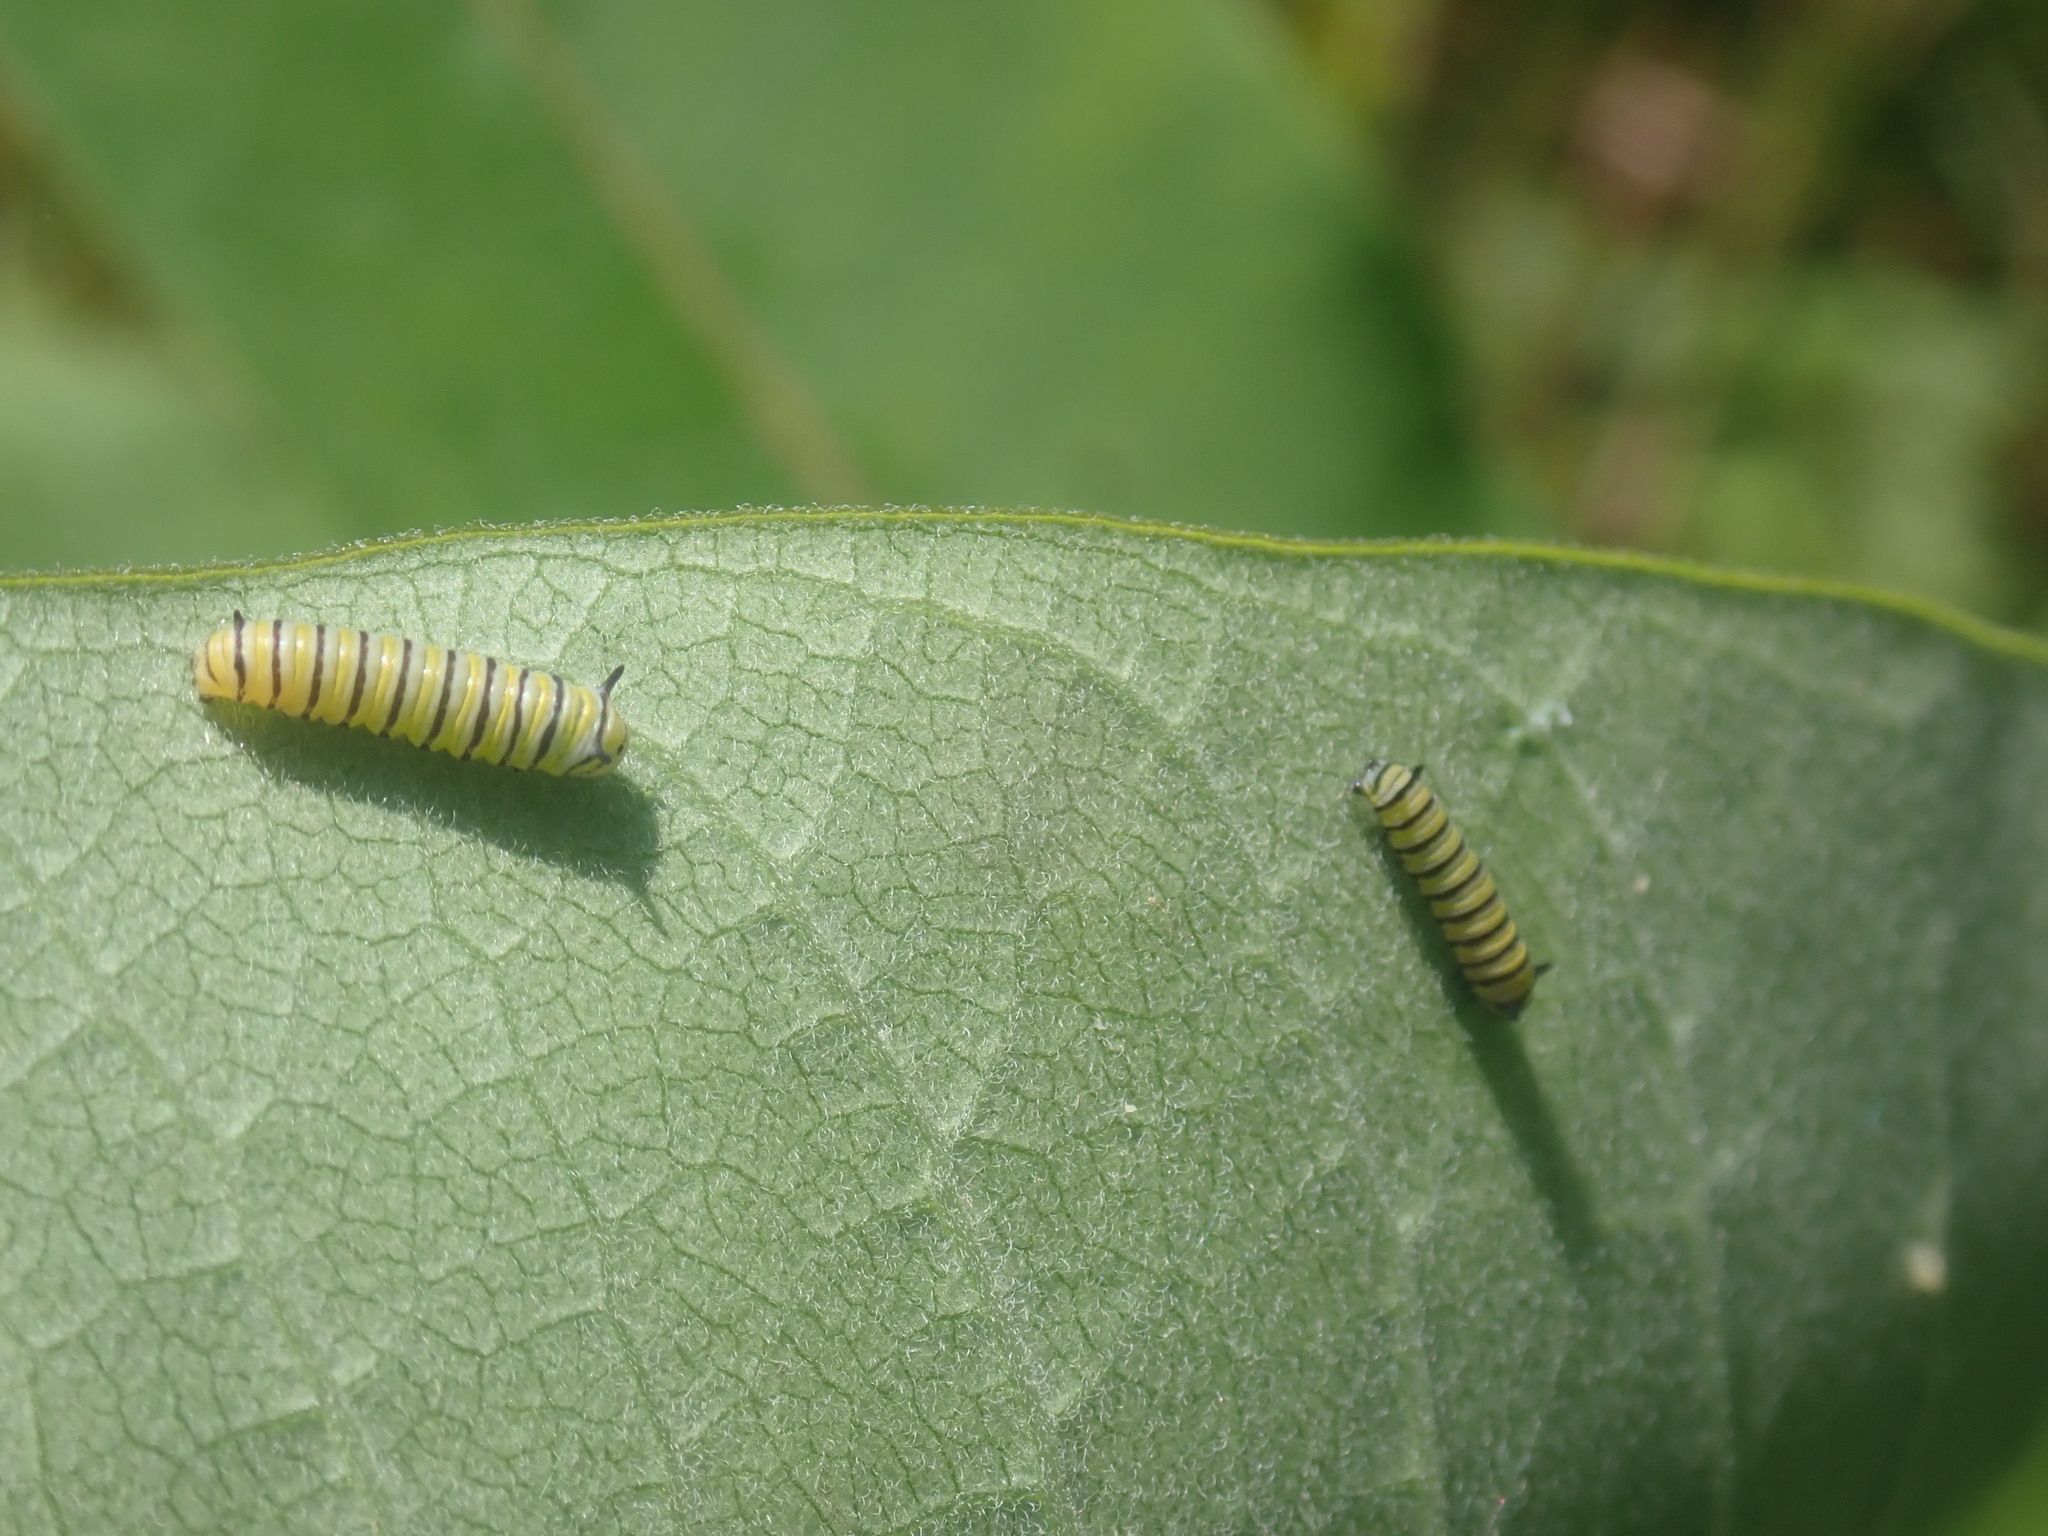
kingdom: Animalia
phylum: Arthropoda
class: Insecta
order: Lepidoptera
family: Nymphalidae
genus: Danaus
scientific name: Danaus plexippus
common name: Monarch
